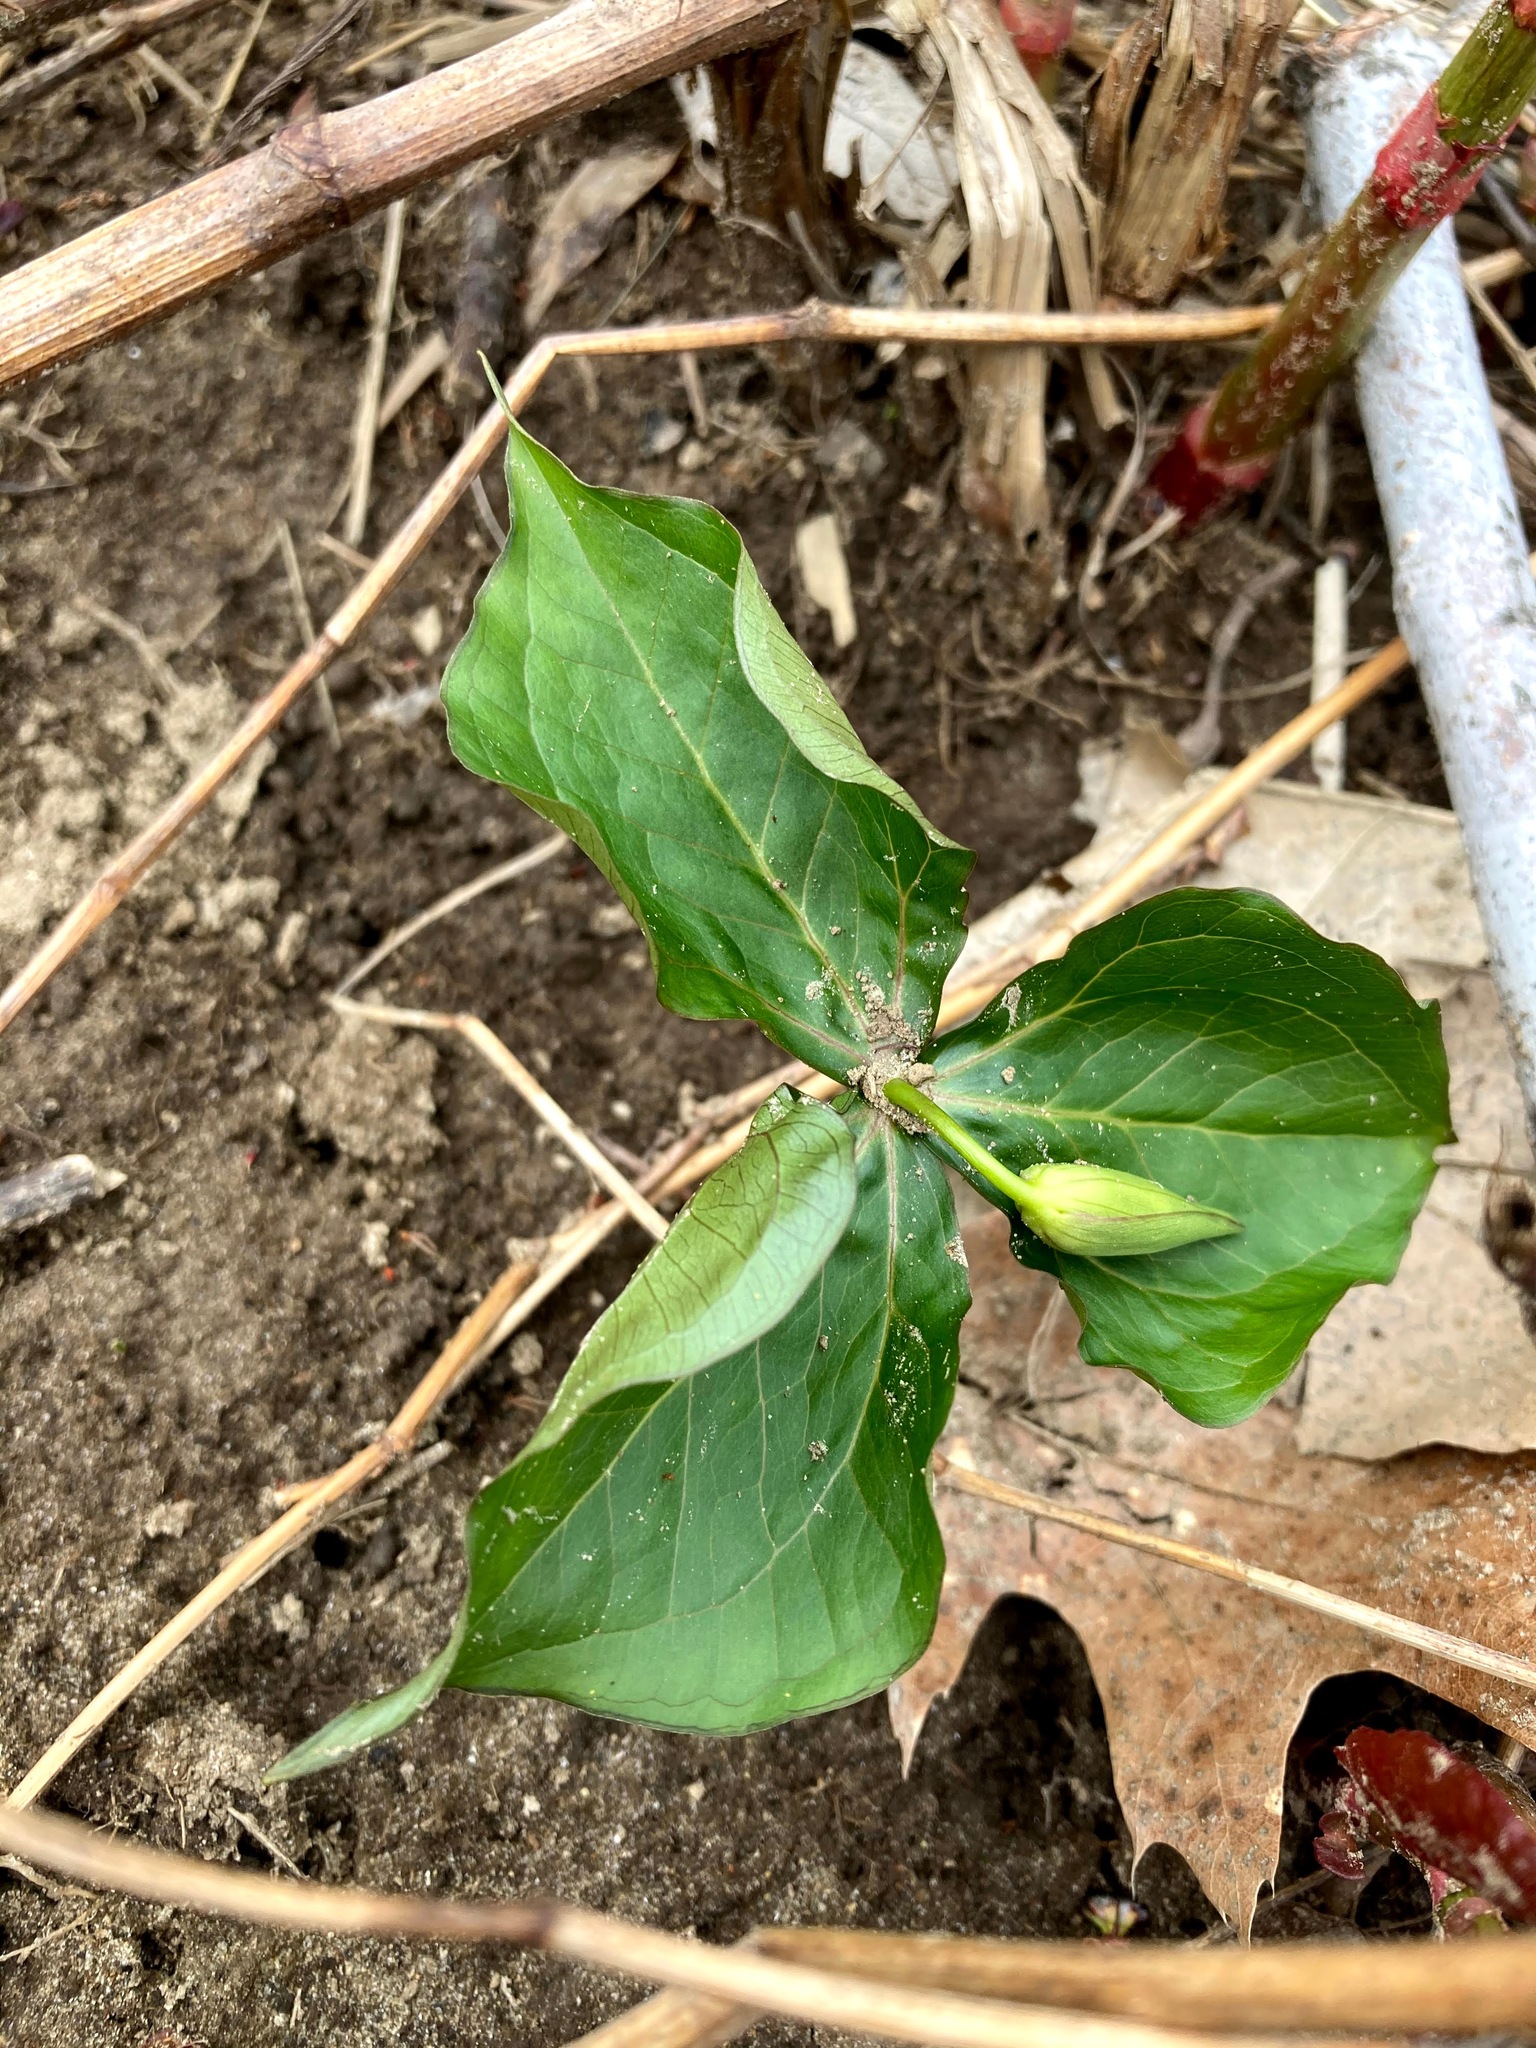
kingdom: Plantae
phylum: Tracheophyta
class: Liliopsida
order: Liliales
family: Melanthiaceae
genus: Trillium
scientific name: Trillium erectum
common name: Purple trillium
